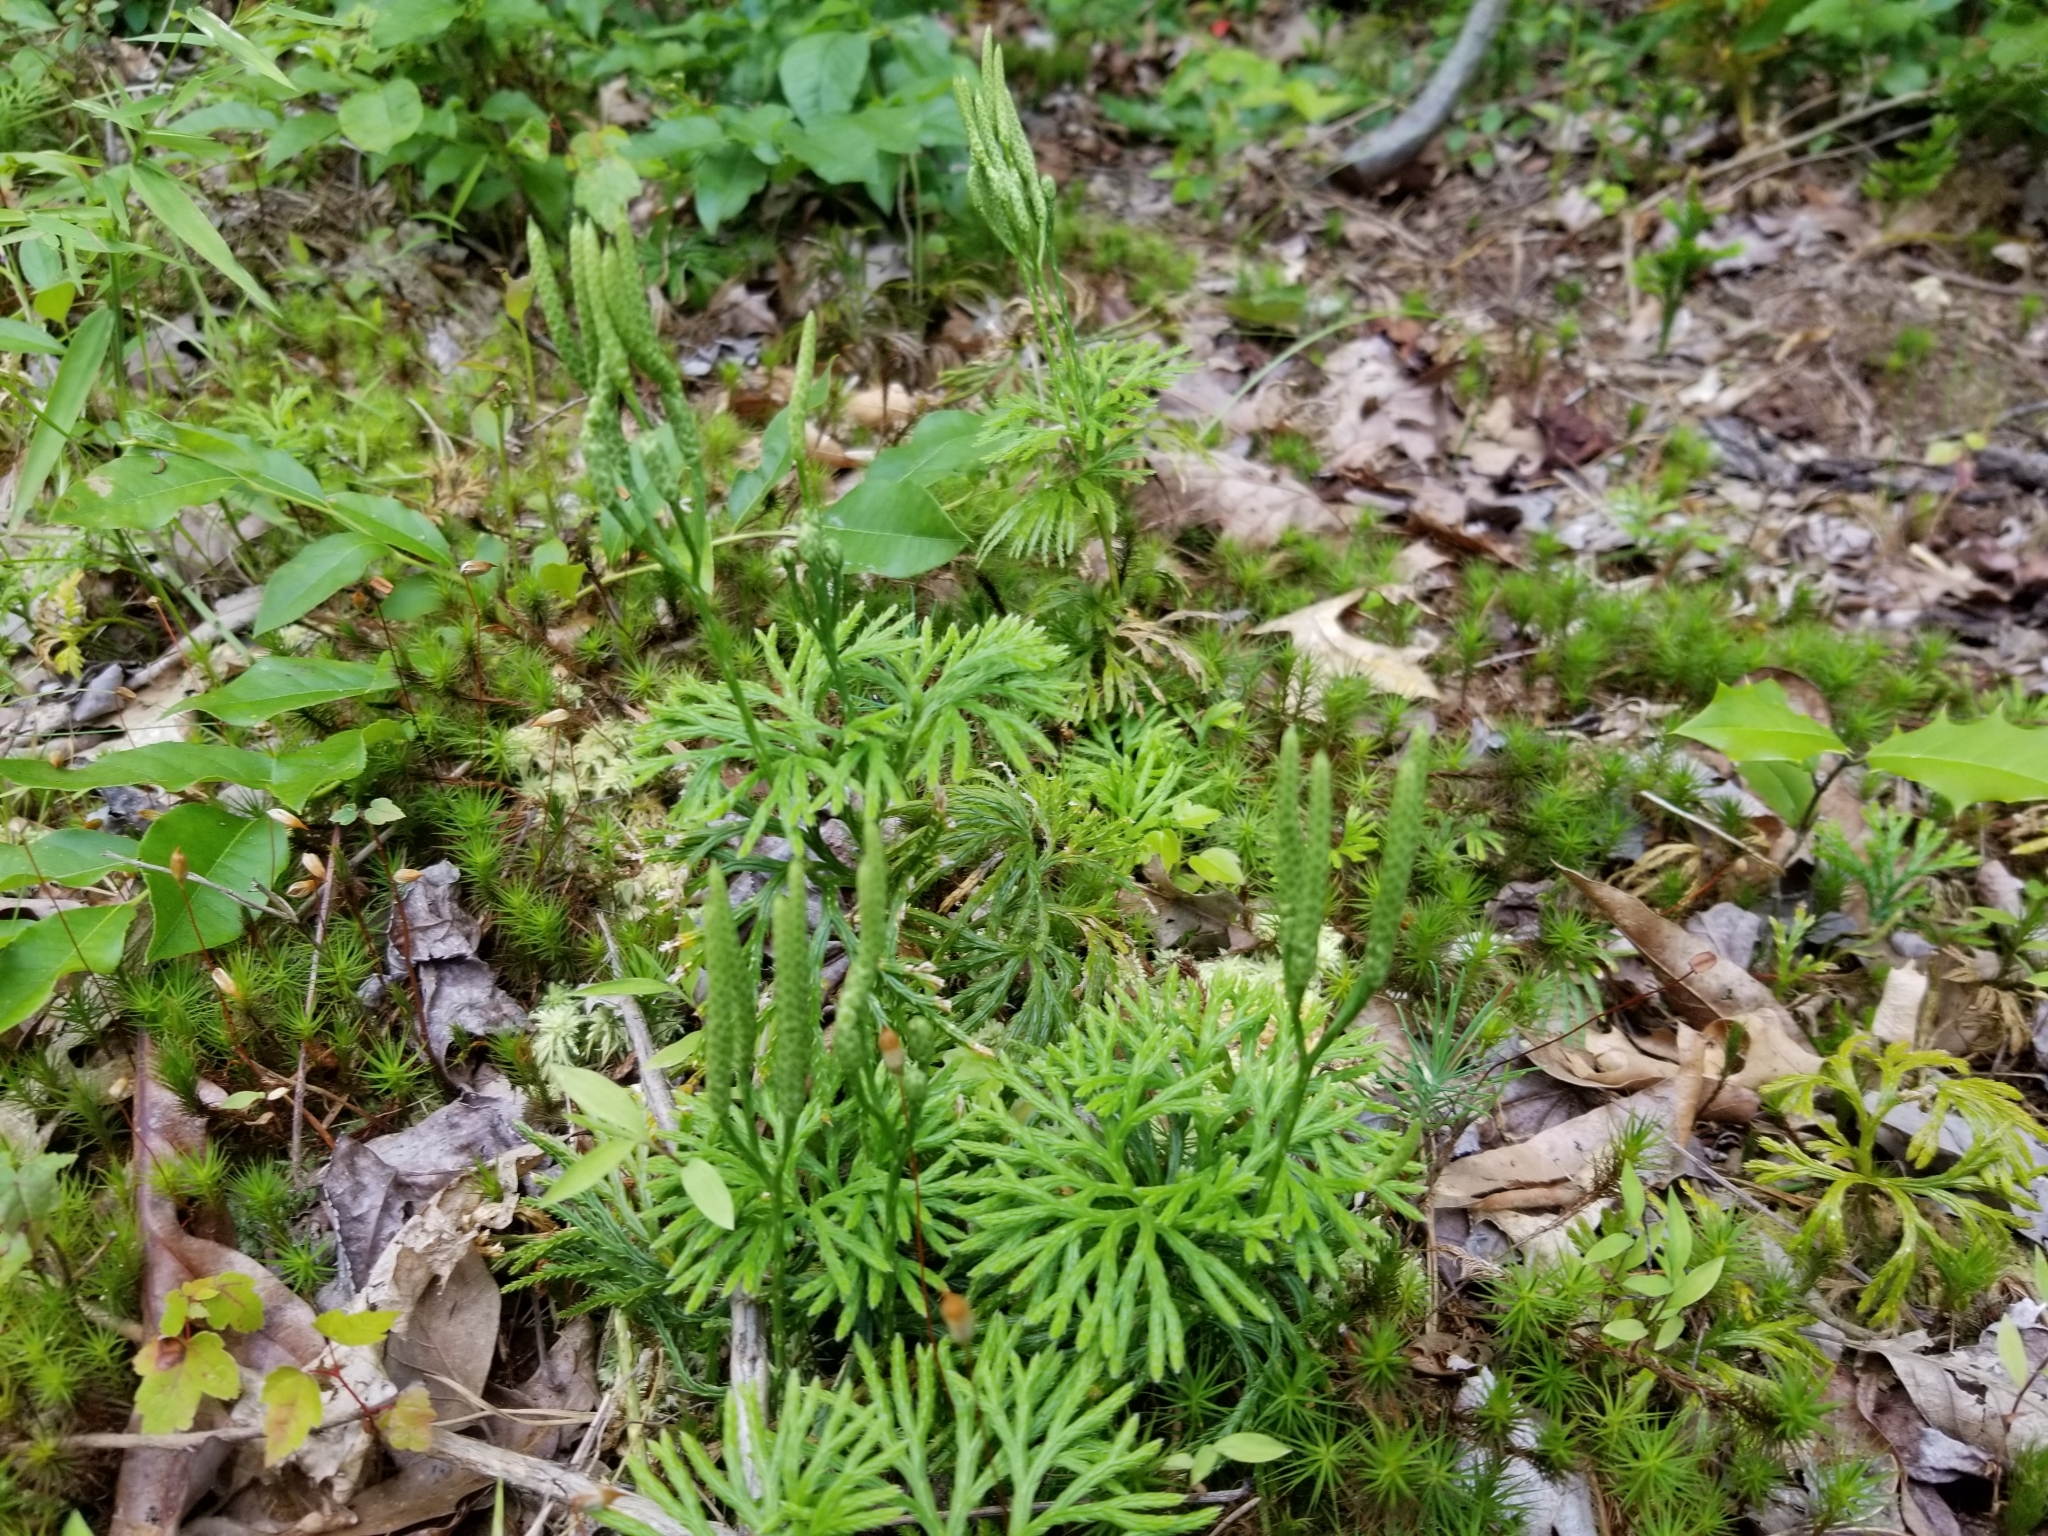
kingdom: Plantae
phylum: Tracheophyta
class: Lycopodiopsida
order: Lycopodiales
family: Lycopodiaceae
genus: Diphasiastrum
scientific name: Diphasiastrum digitatum
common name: Southern running-pine
